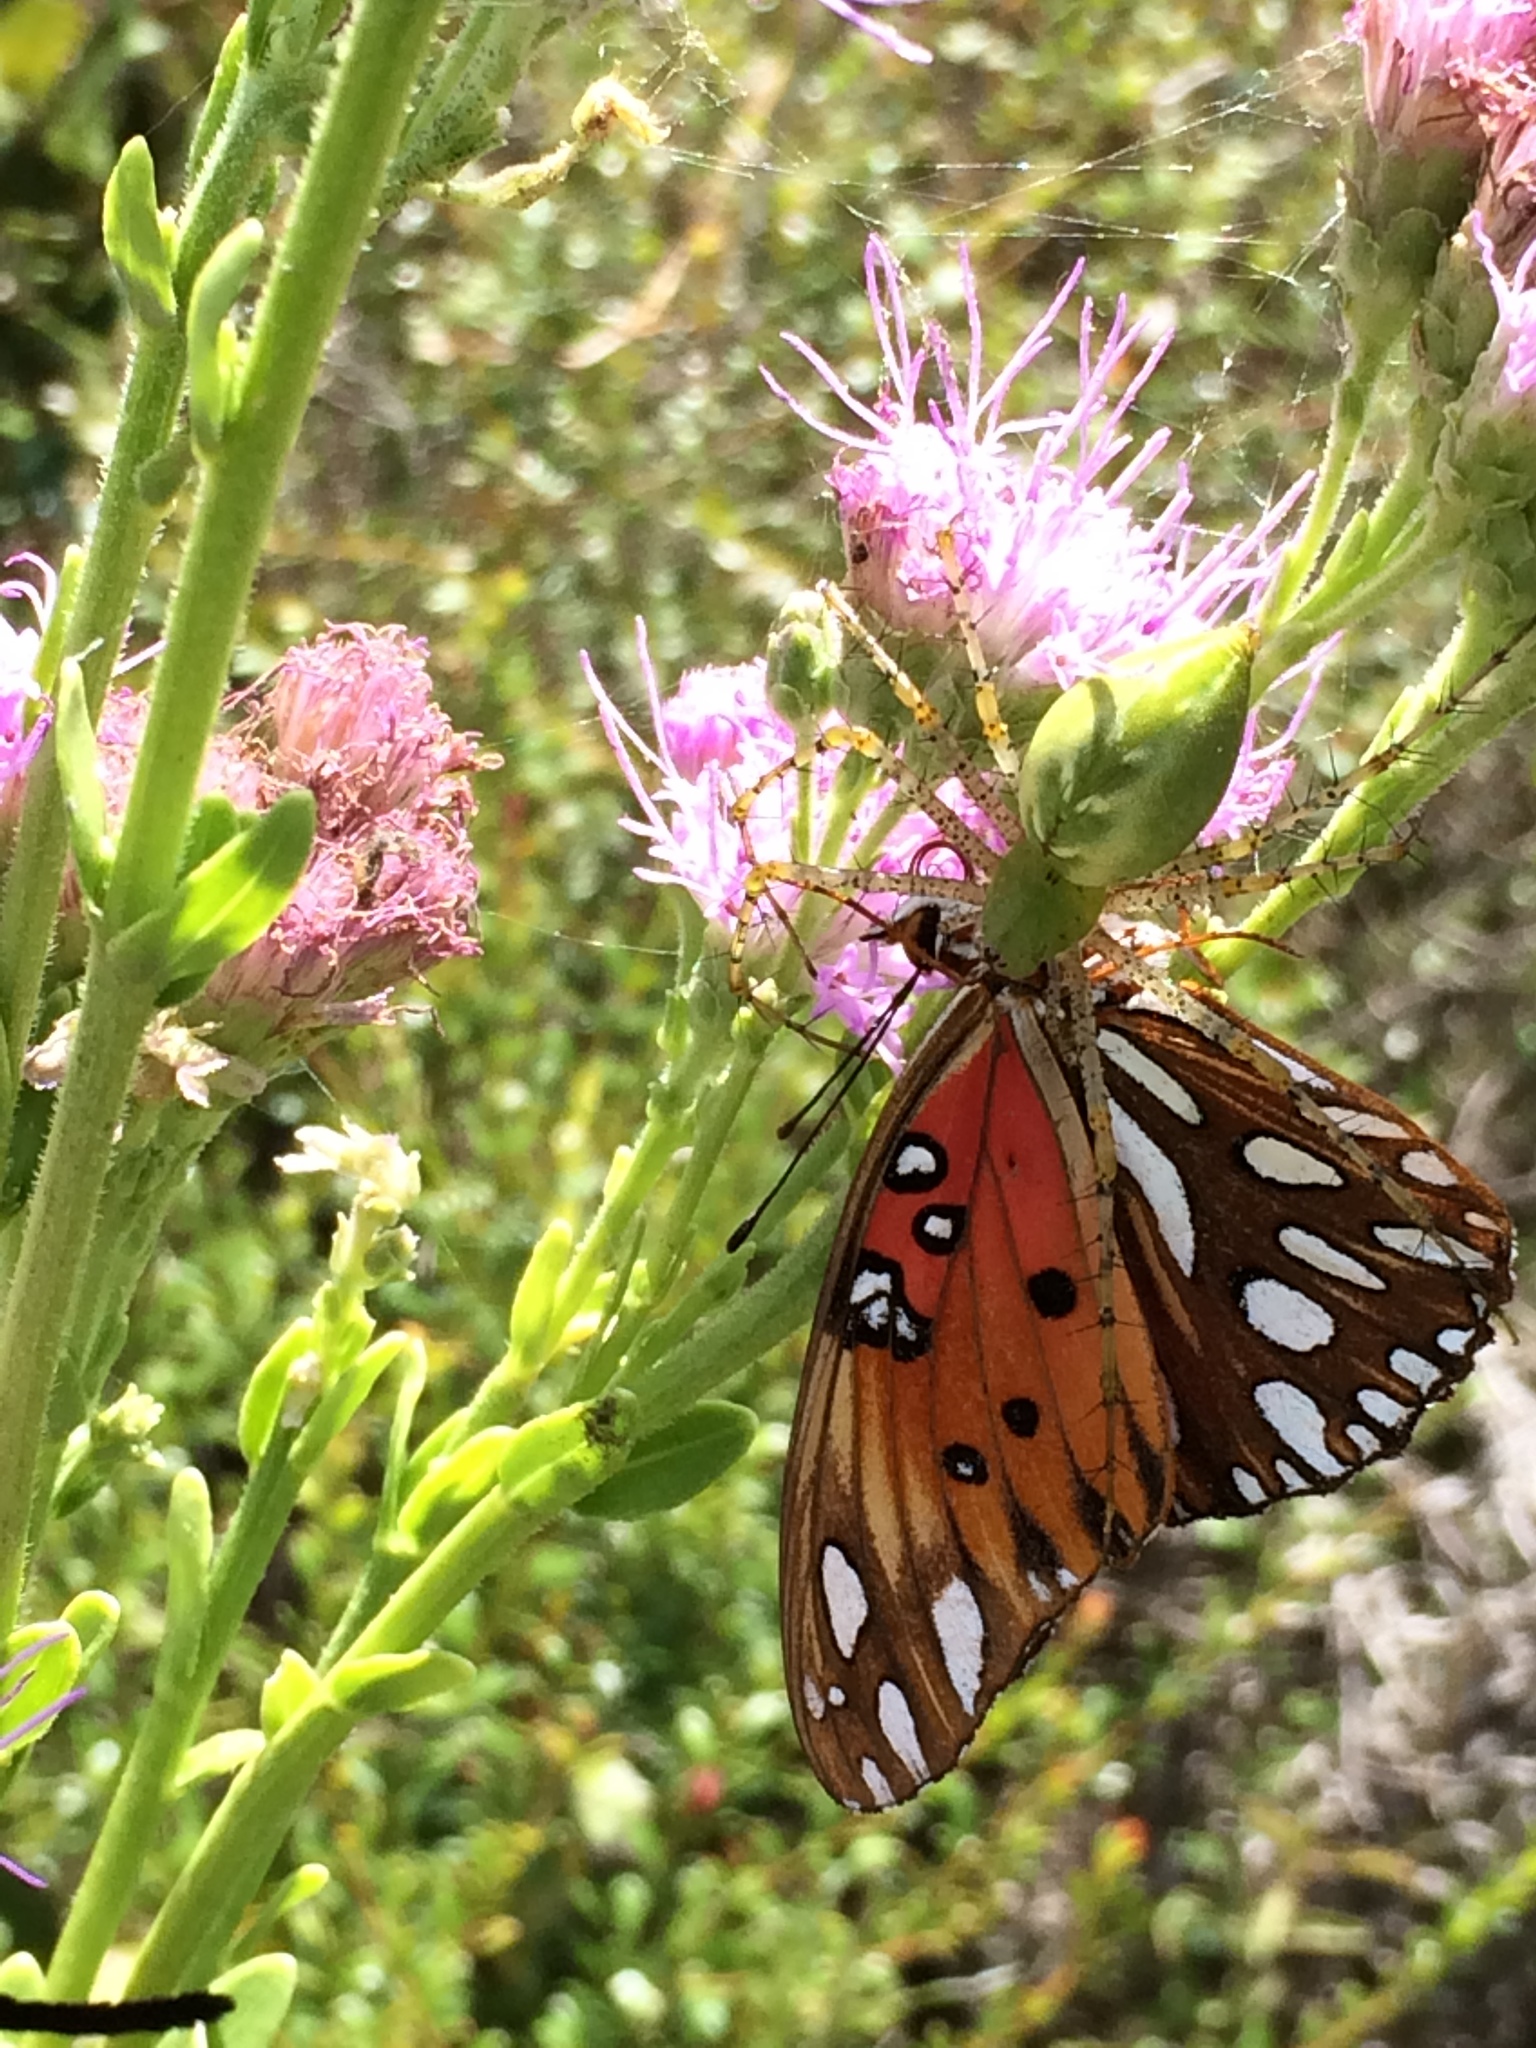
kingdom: Animalia
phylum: Arthropoda
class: Arachnida
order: Araneae
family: Oxyopidae
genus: Peucetia
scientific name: Peucetia viridans
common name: Lynx spiders
